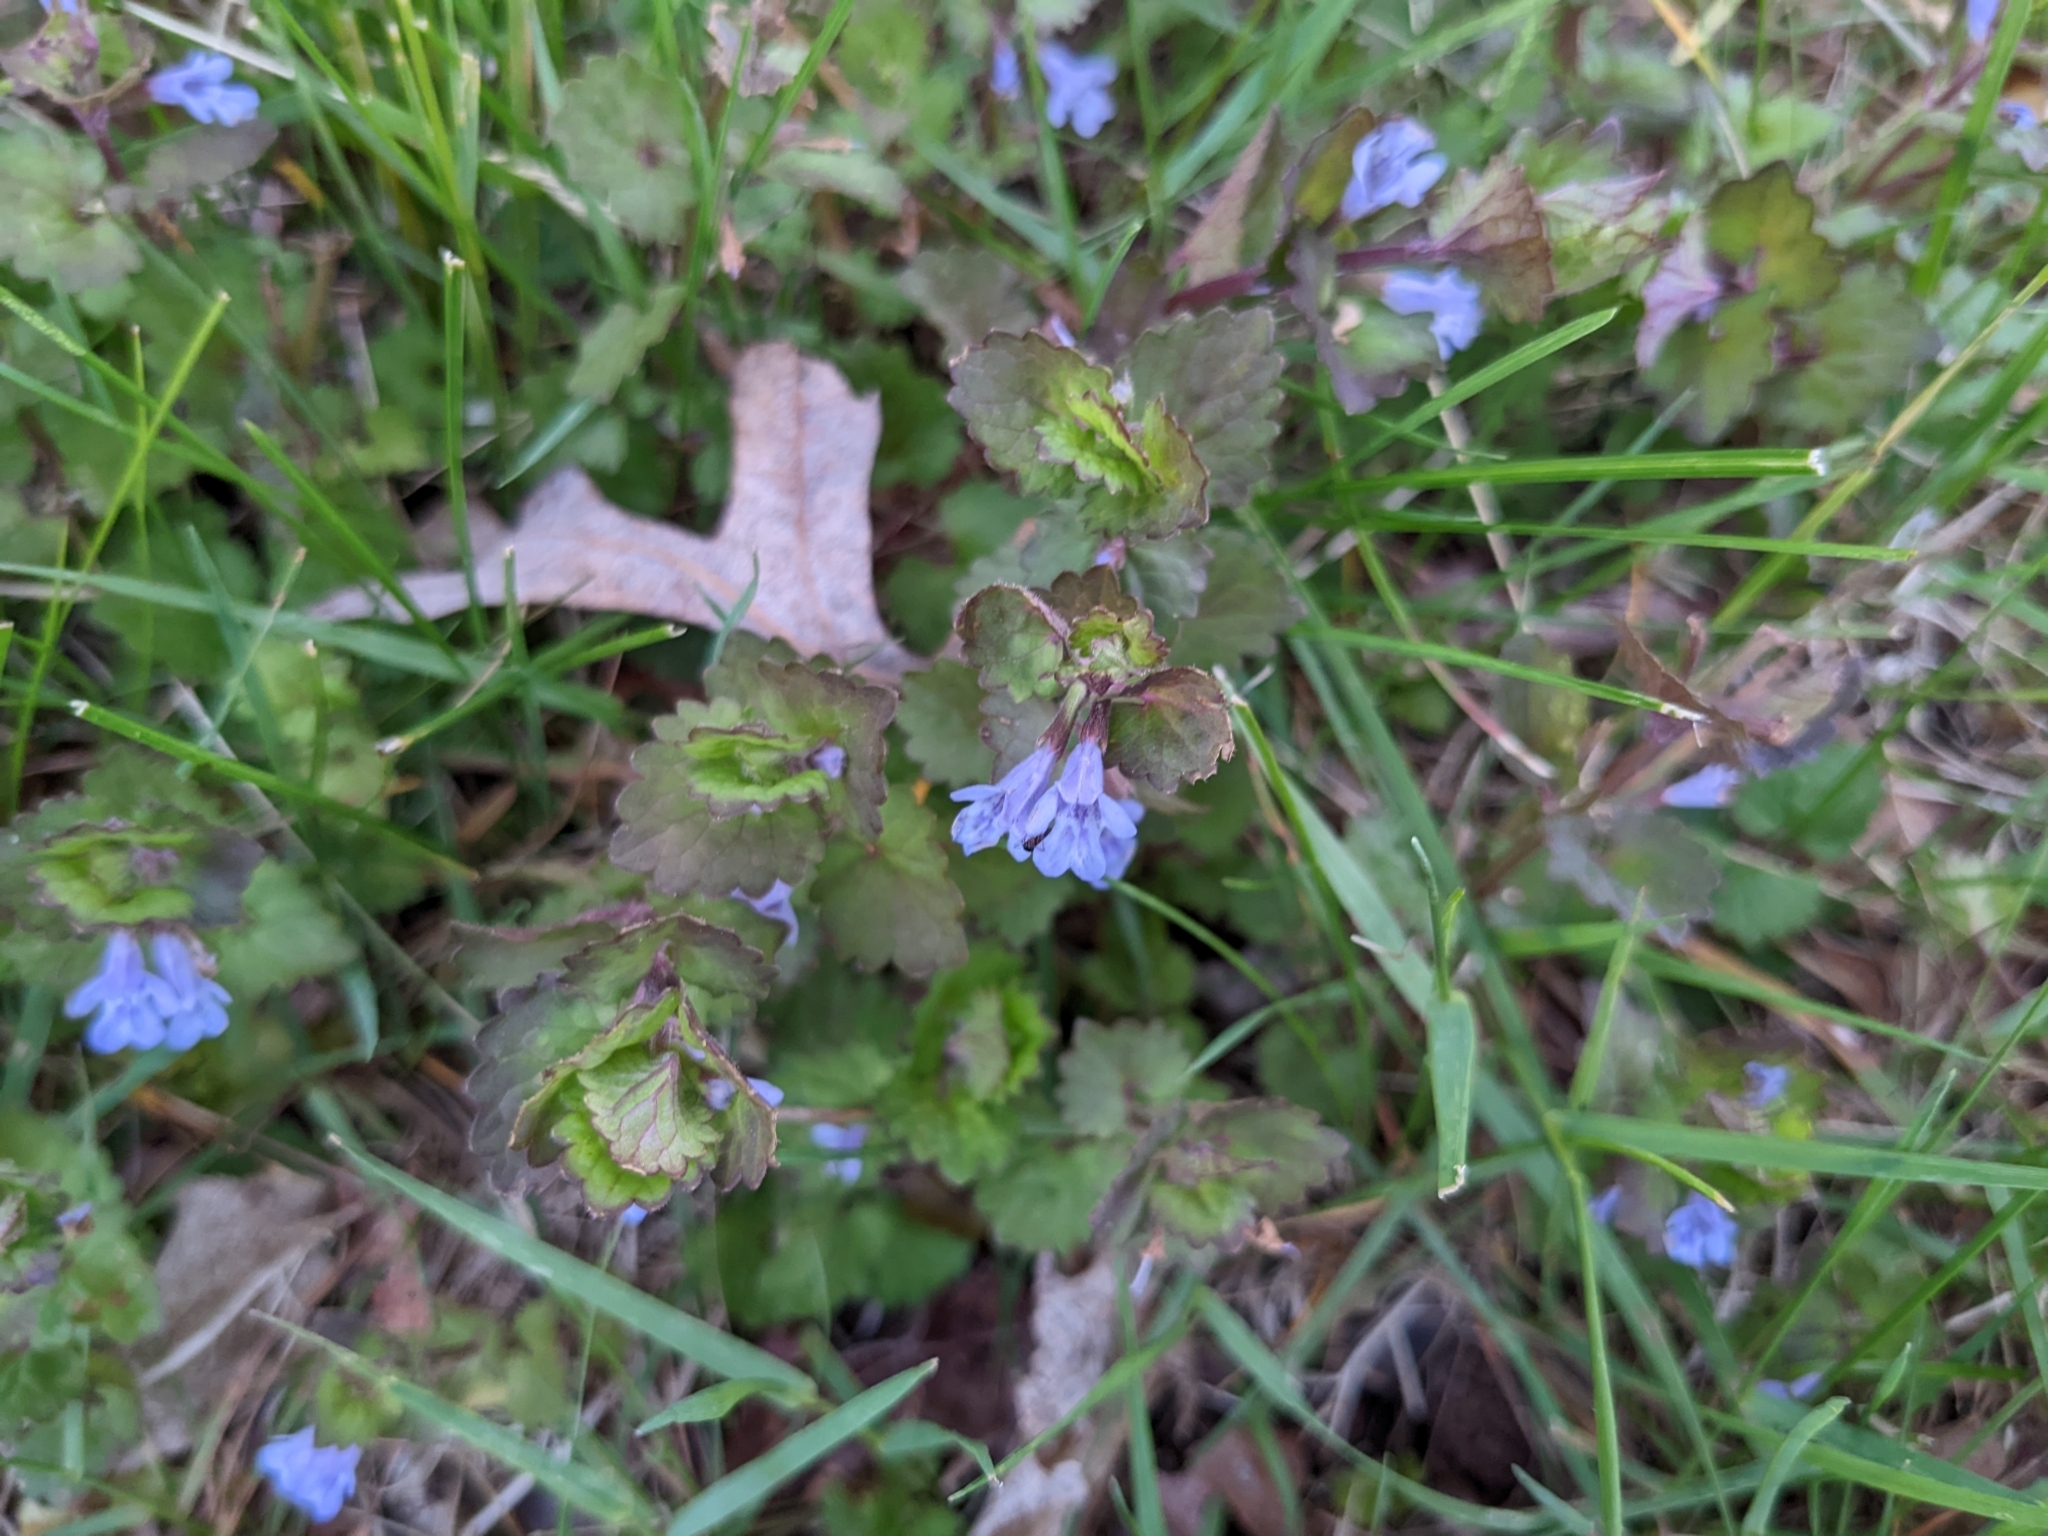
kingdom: Plantae
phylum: Tracheophyta
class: Magnoliopsida
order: Lamiales
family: Lamiaceae
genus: Glechoma
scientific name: Glechoma hederacea
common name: Ground ivy
